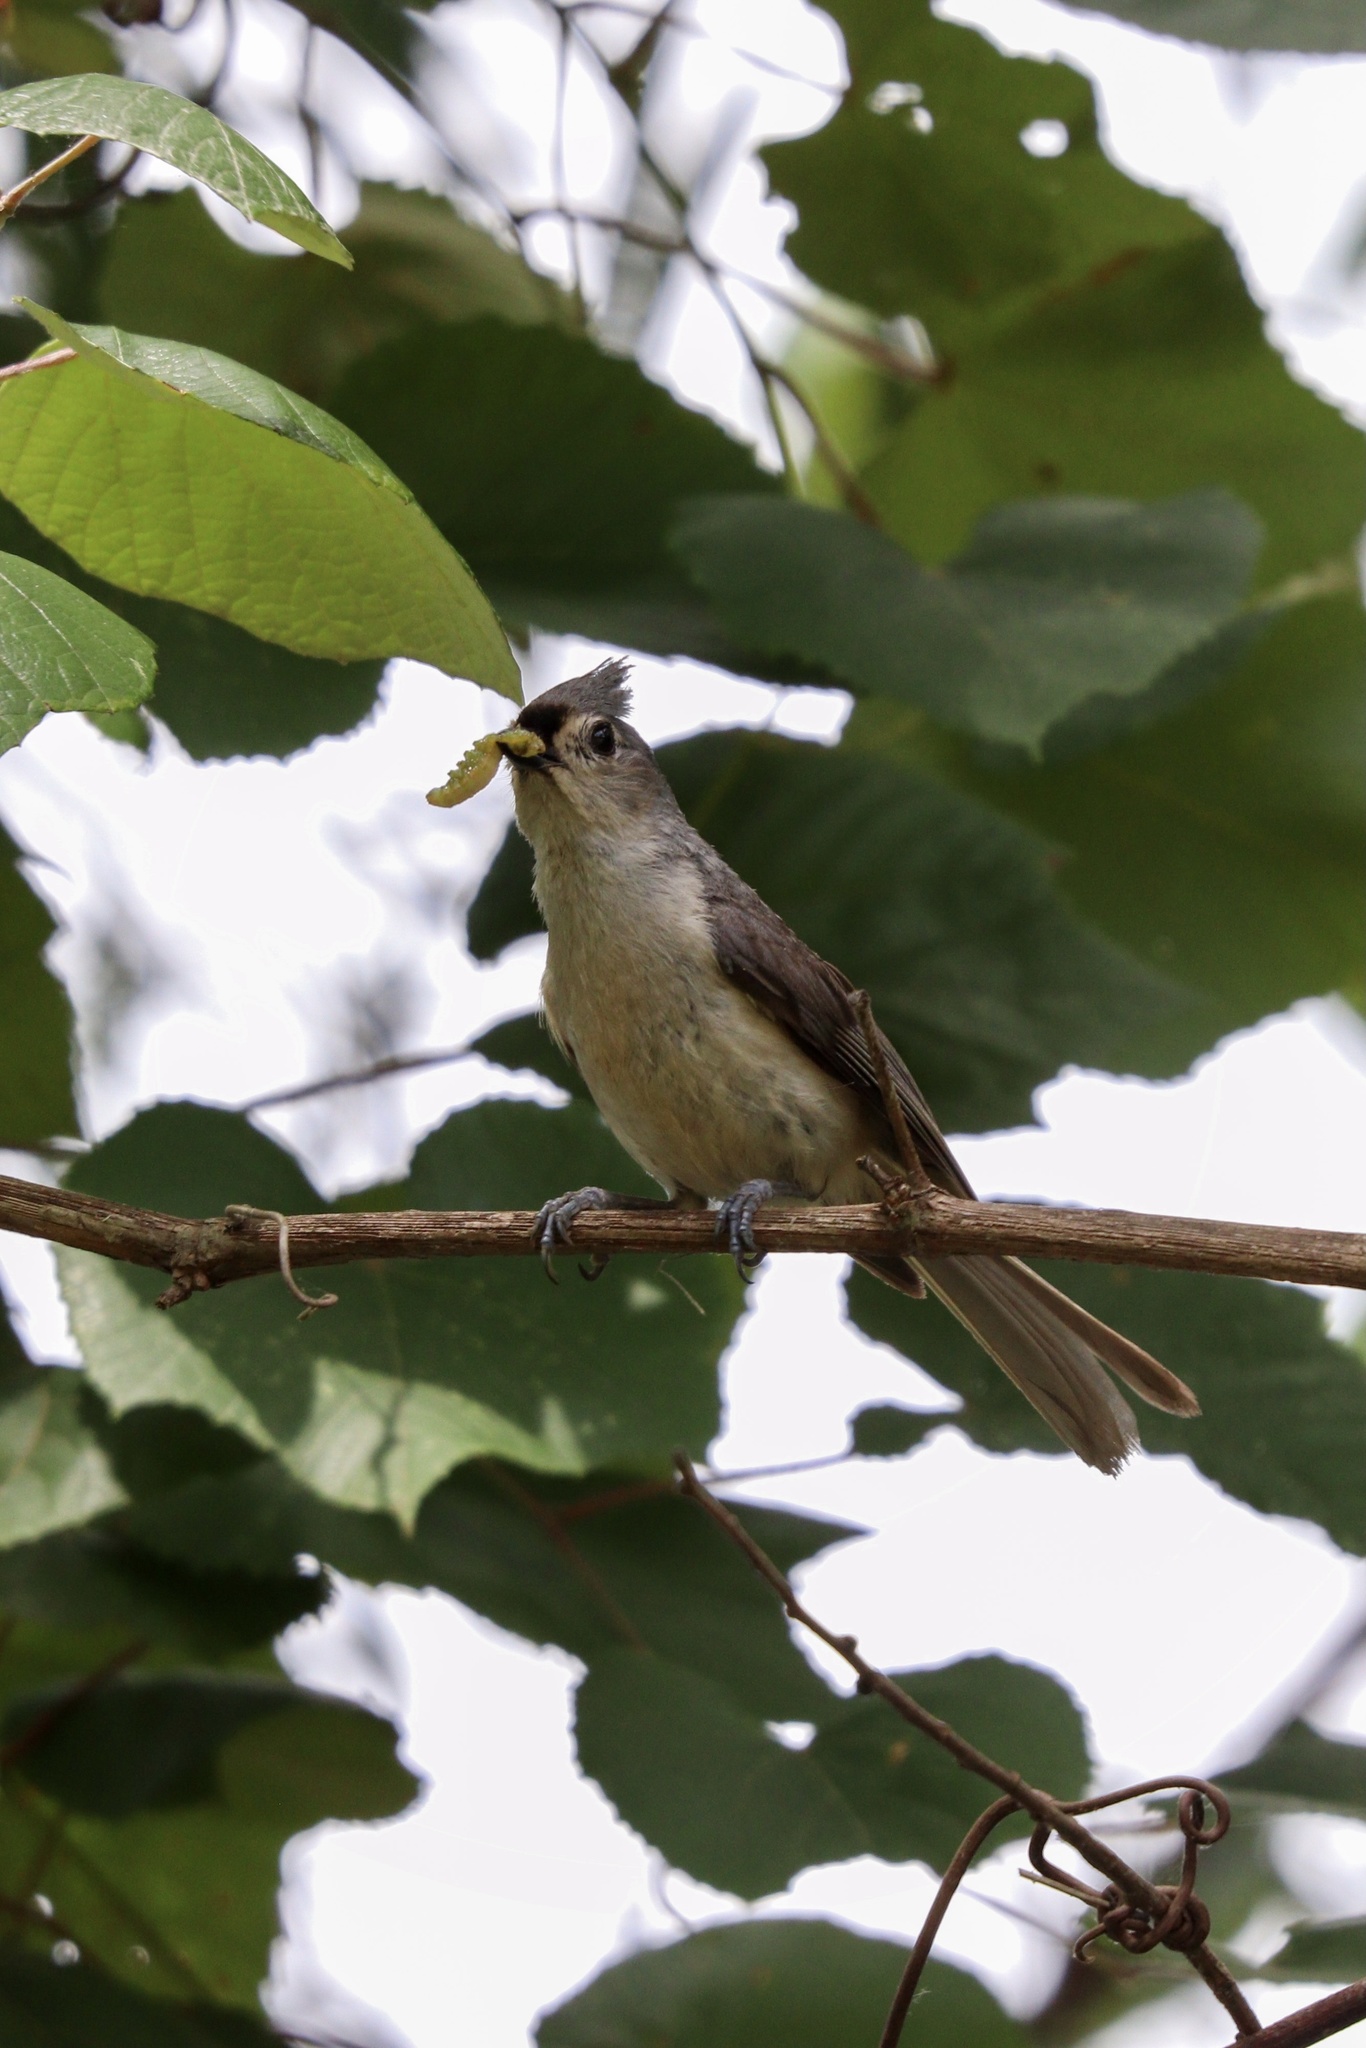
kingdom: Animalia
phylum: Chordata
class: Aves
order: Passeriformes
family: Paridae
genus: Baeolophus
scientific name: Baeolophus bicolor
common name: Tufted titmouse
